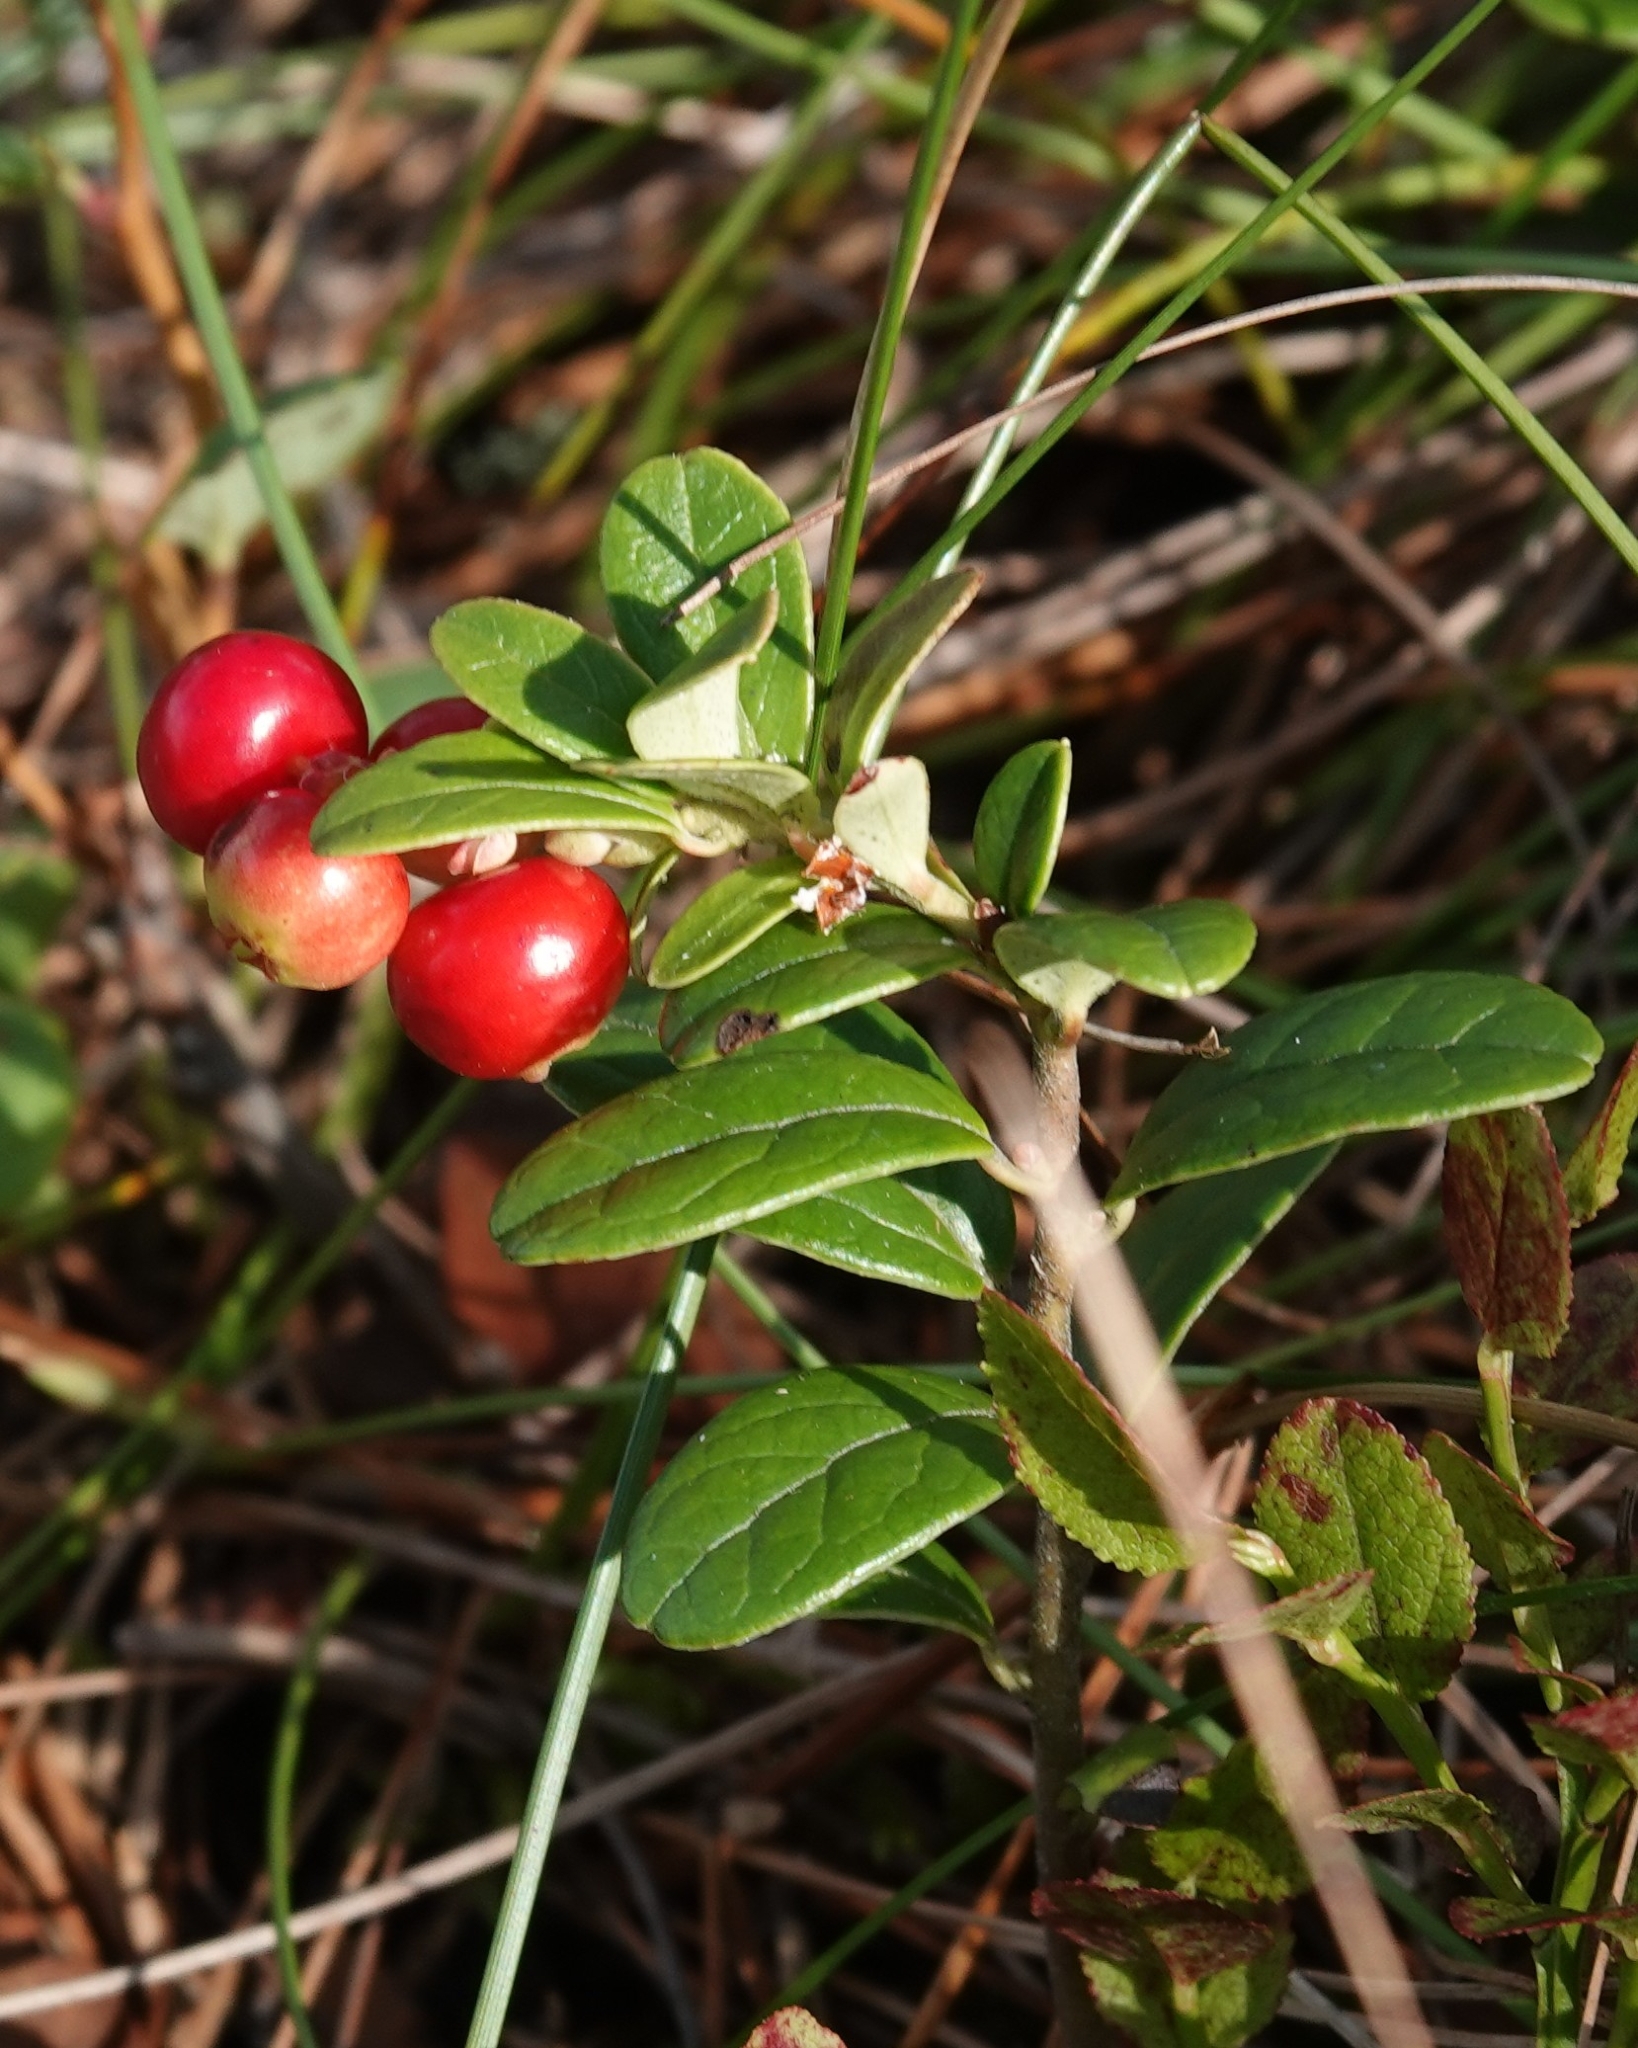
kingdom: Plantae
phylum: Tracheophyta
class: Magnoliopsida
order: Ericales
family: Ericaceae
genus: Vaccinium
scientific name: Vaccinium vitis-idaea
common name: Cowberry
